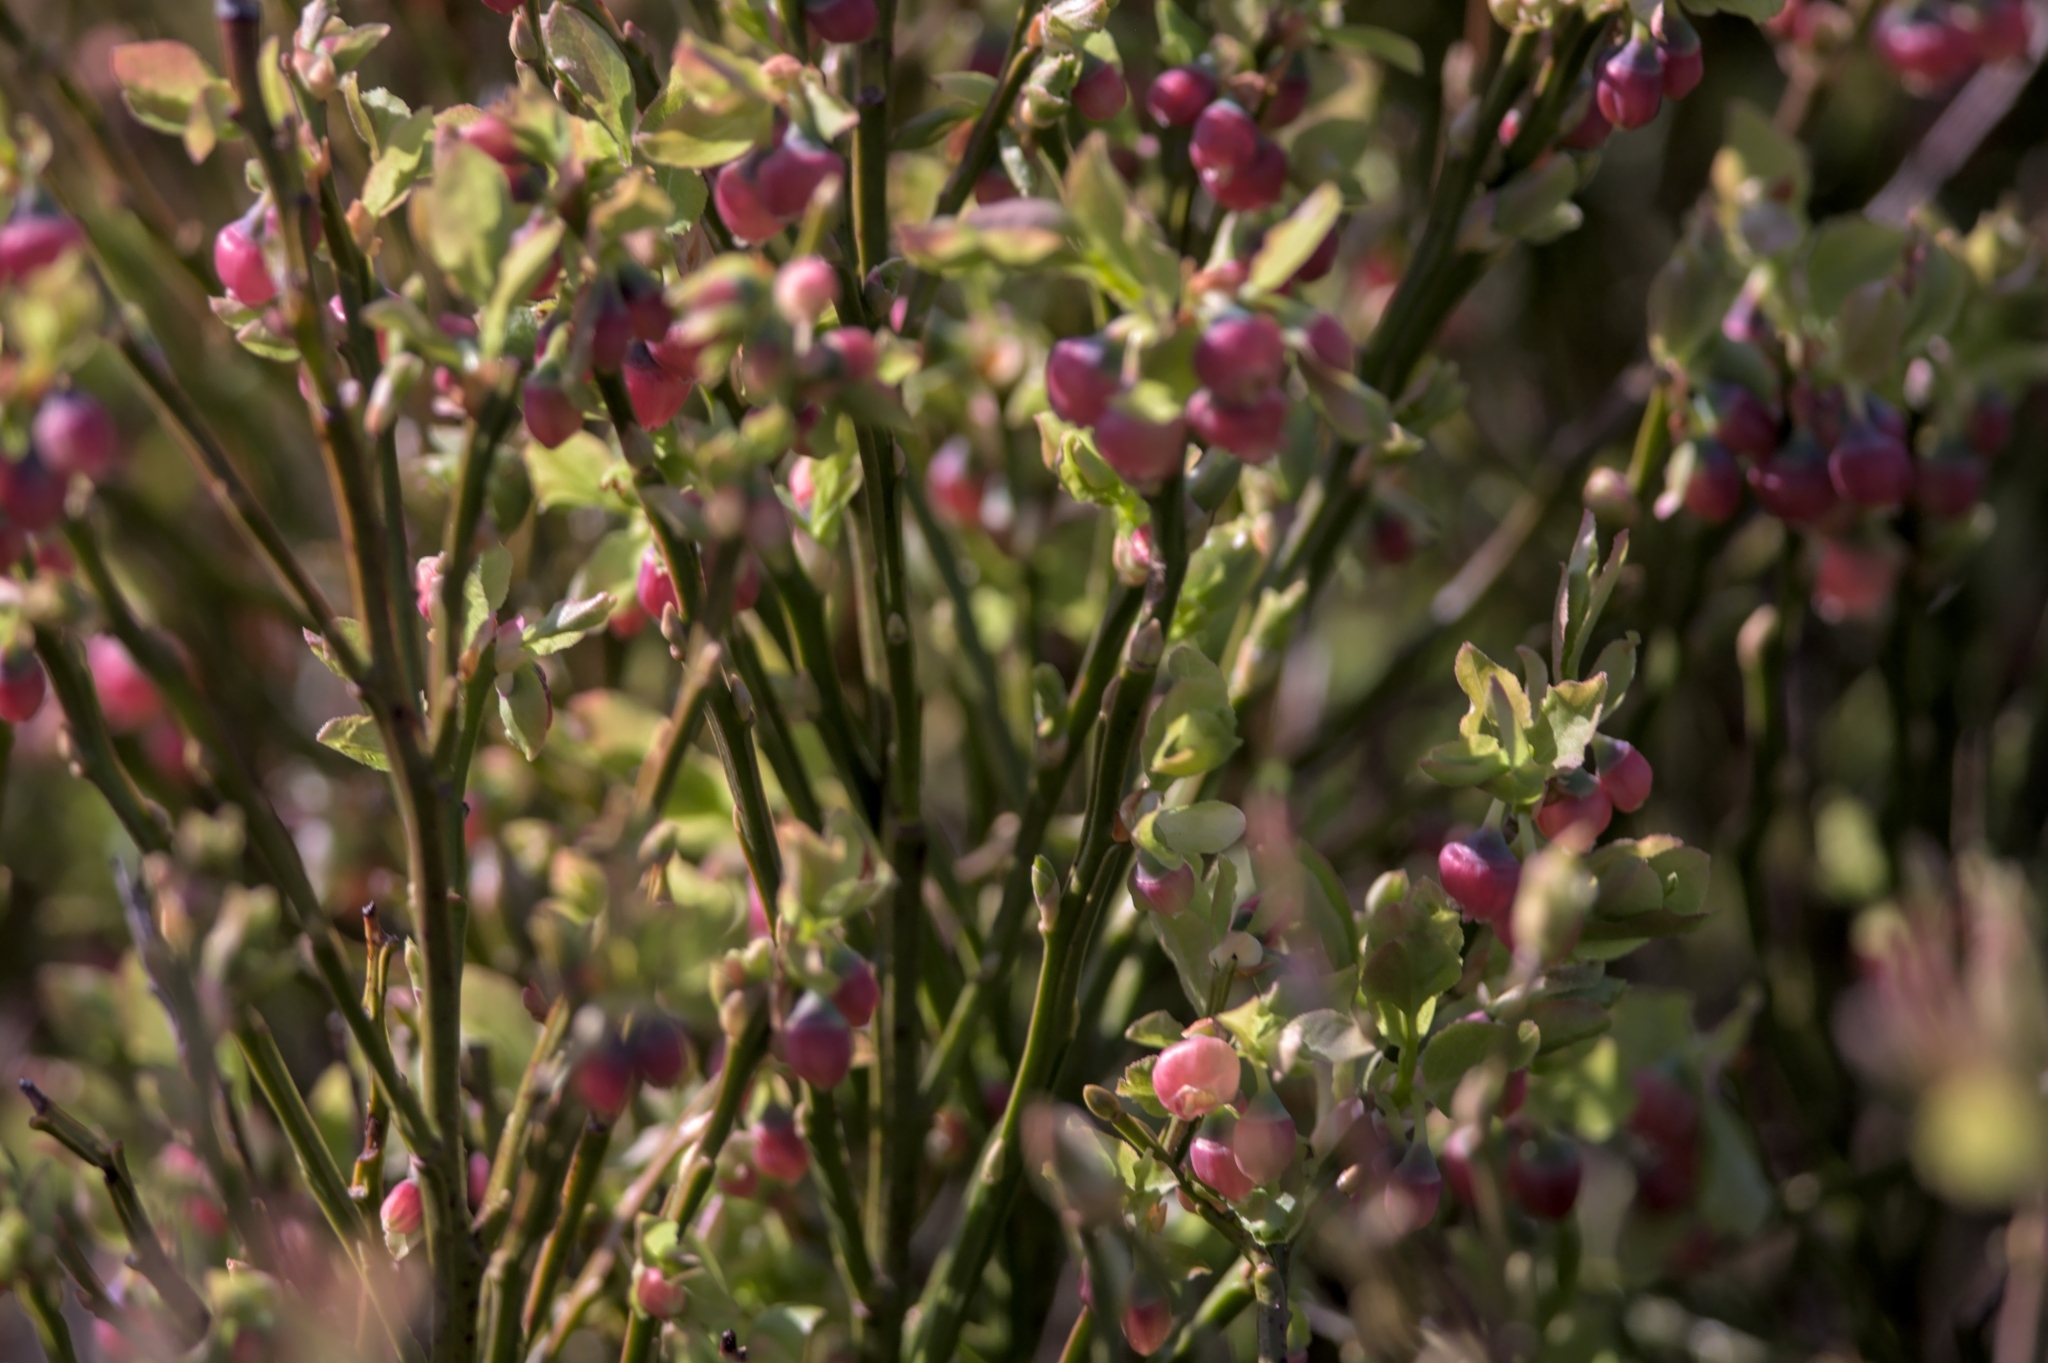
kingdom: Plantae
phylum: Tracheophyta
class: Magnoliopsida
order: Ericales
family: Ericaceae
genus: Vaccinium
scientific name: Vaccinium myrtillus
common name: Bilberry
